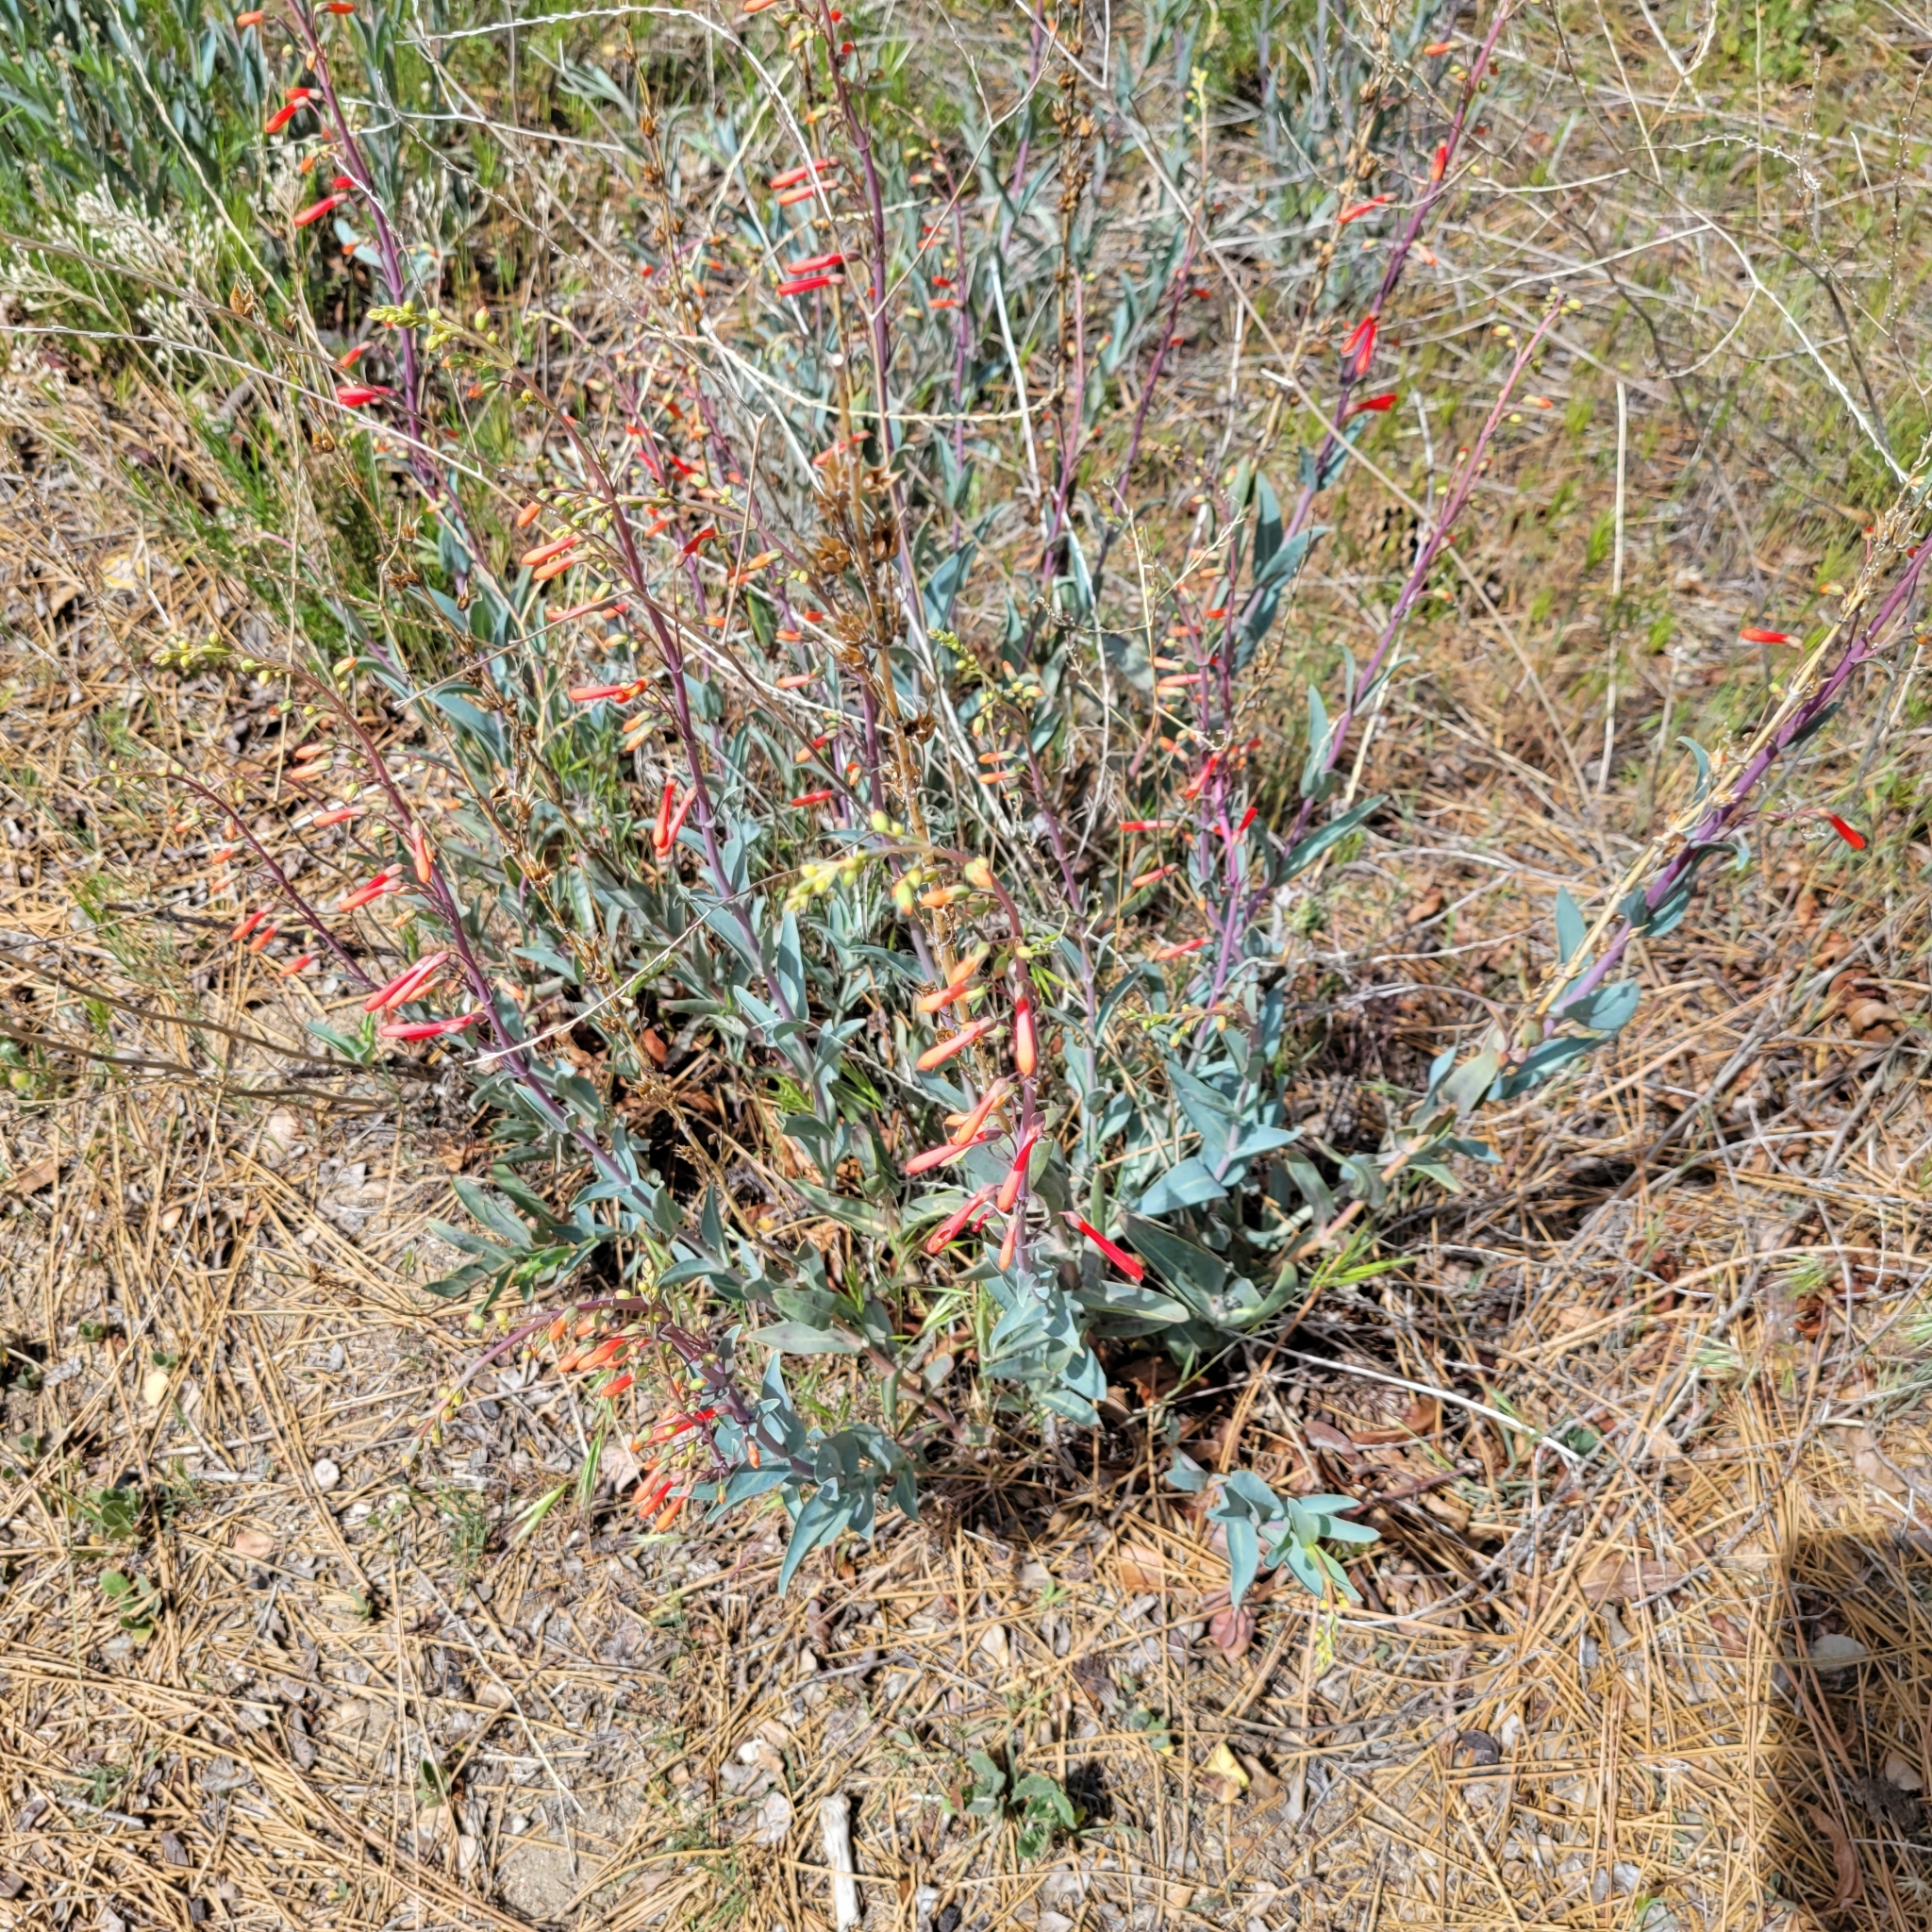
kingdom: Plantae
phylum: Tracheophyta
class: Magnoliopsida
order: Lamiales
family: Plantaginaceae
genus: Penstemon
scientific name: Penstemon centranthifolius
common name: Scarlet bugler
